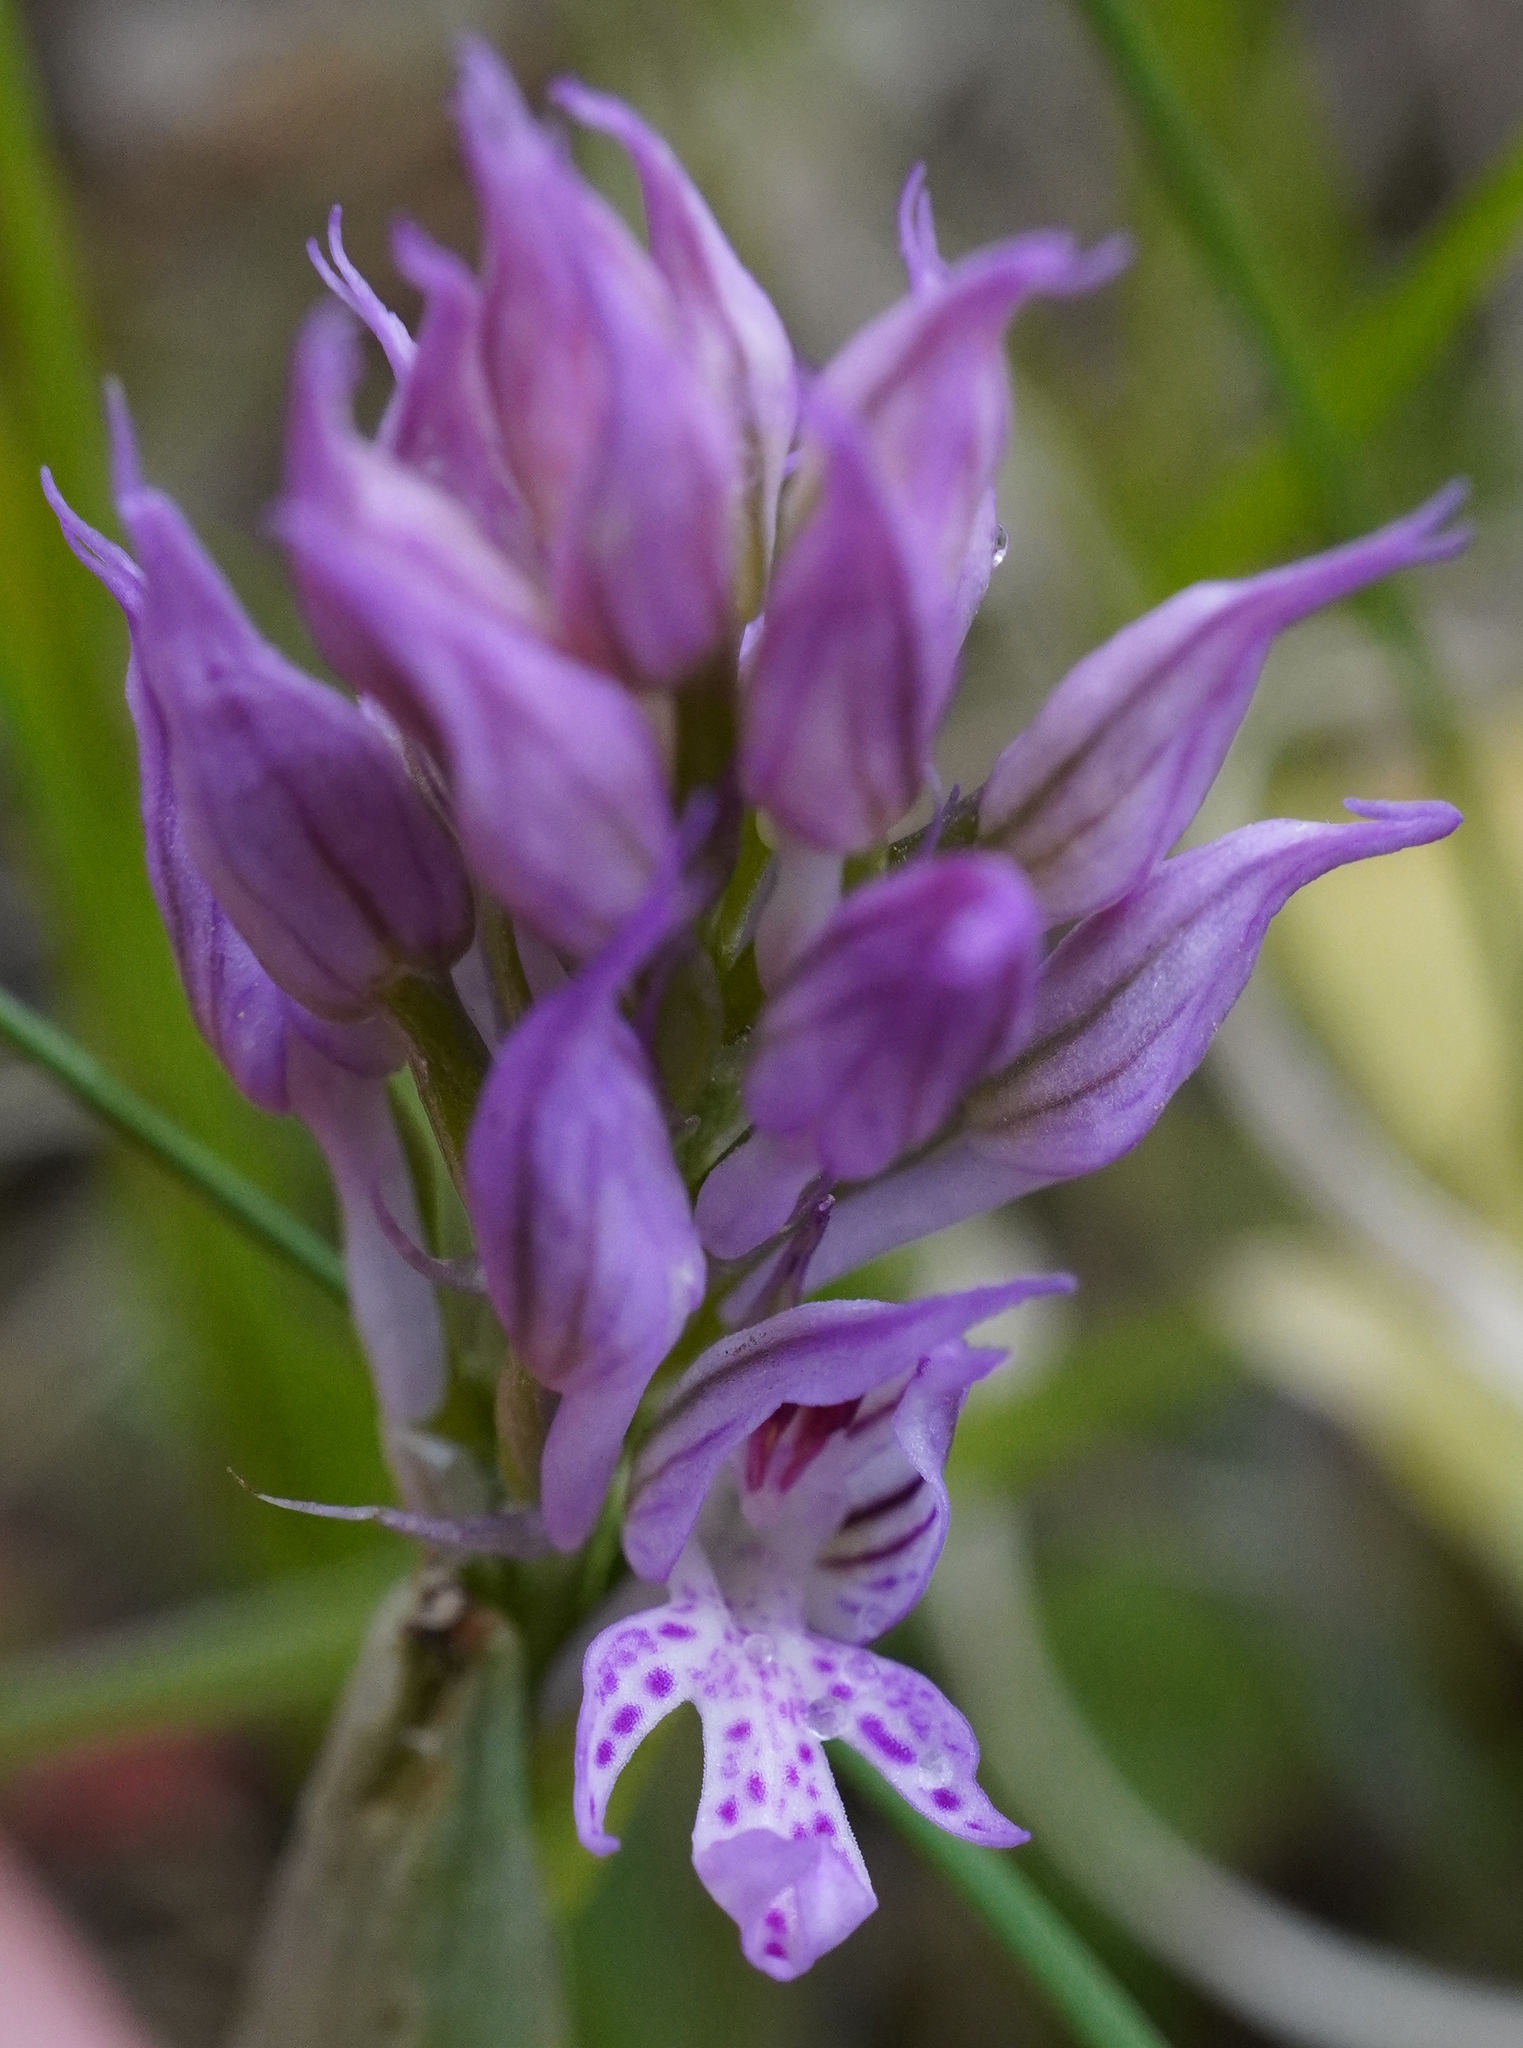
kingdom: Plantae
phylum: Tracheophyta
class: Liliopsida
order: Asparagales
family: Orchidaceae
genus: Neotinea
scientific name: Neotinea tridentata
